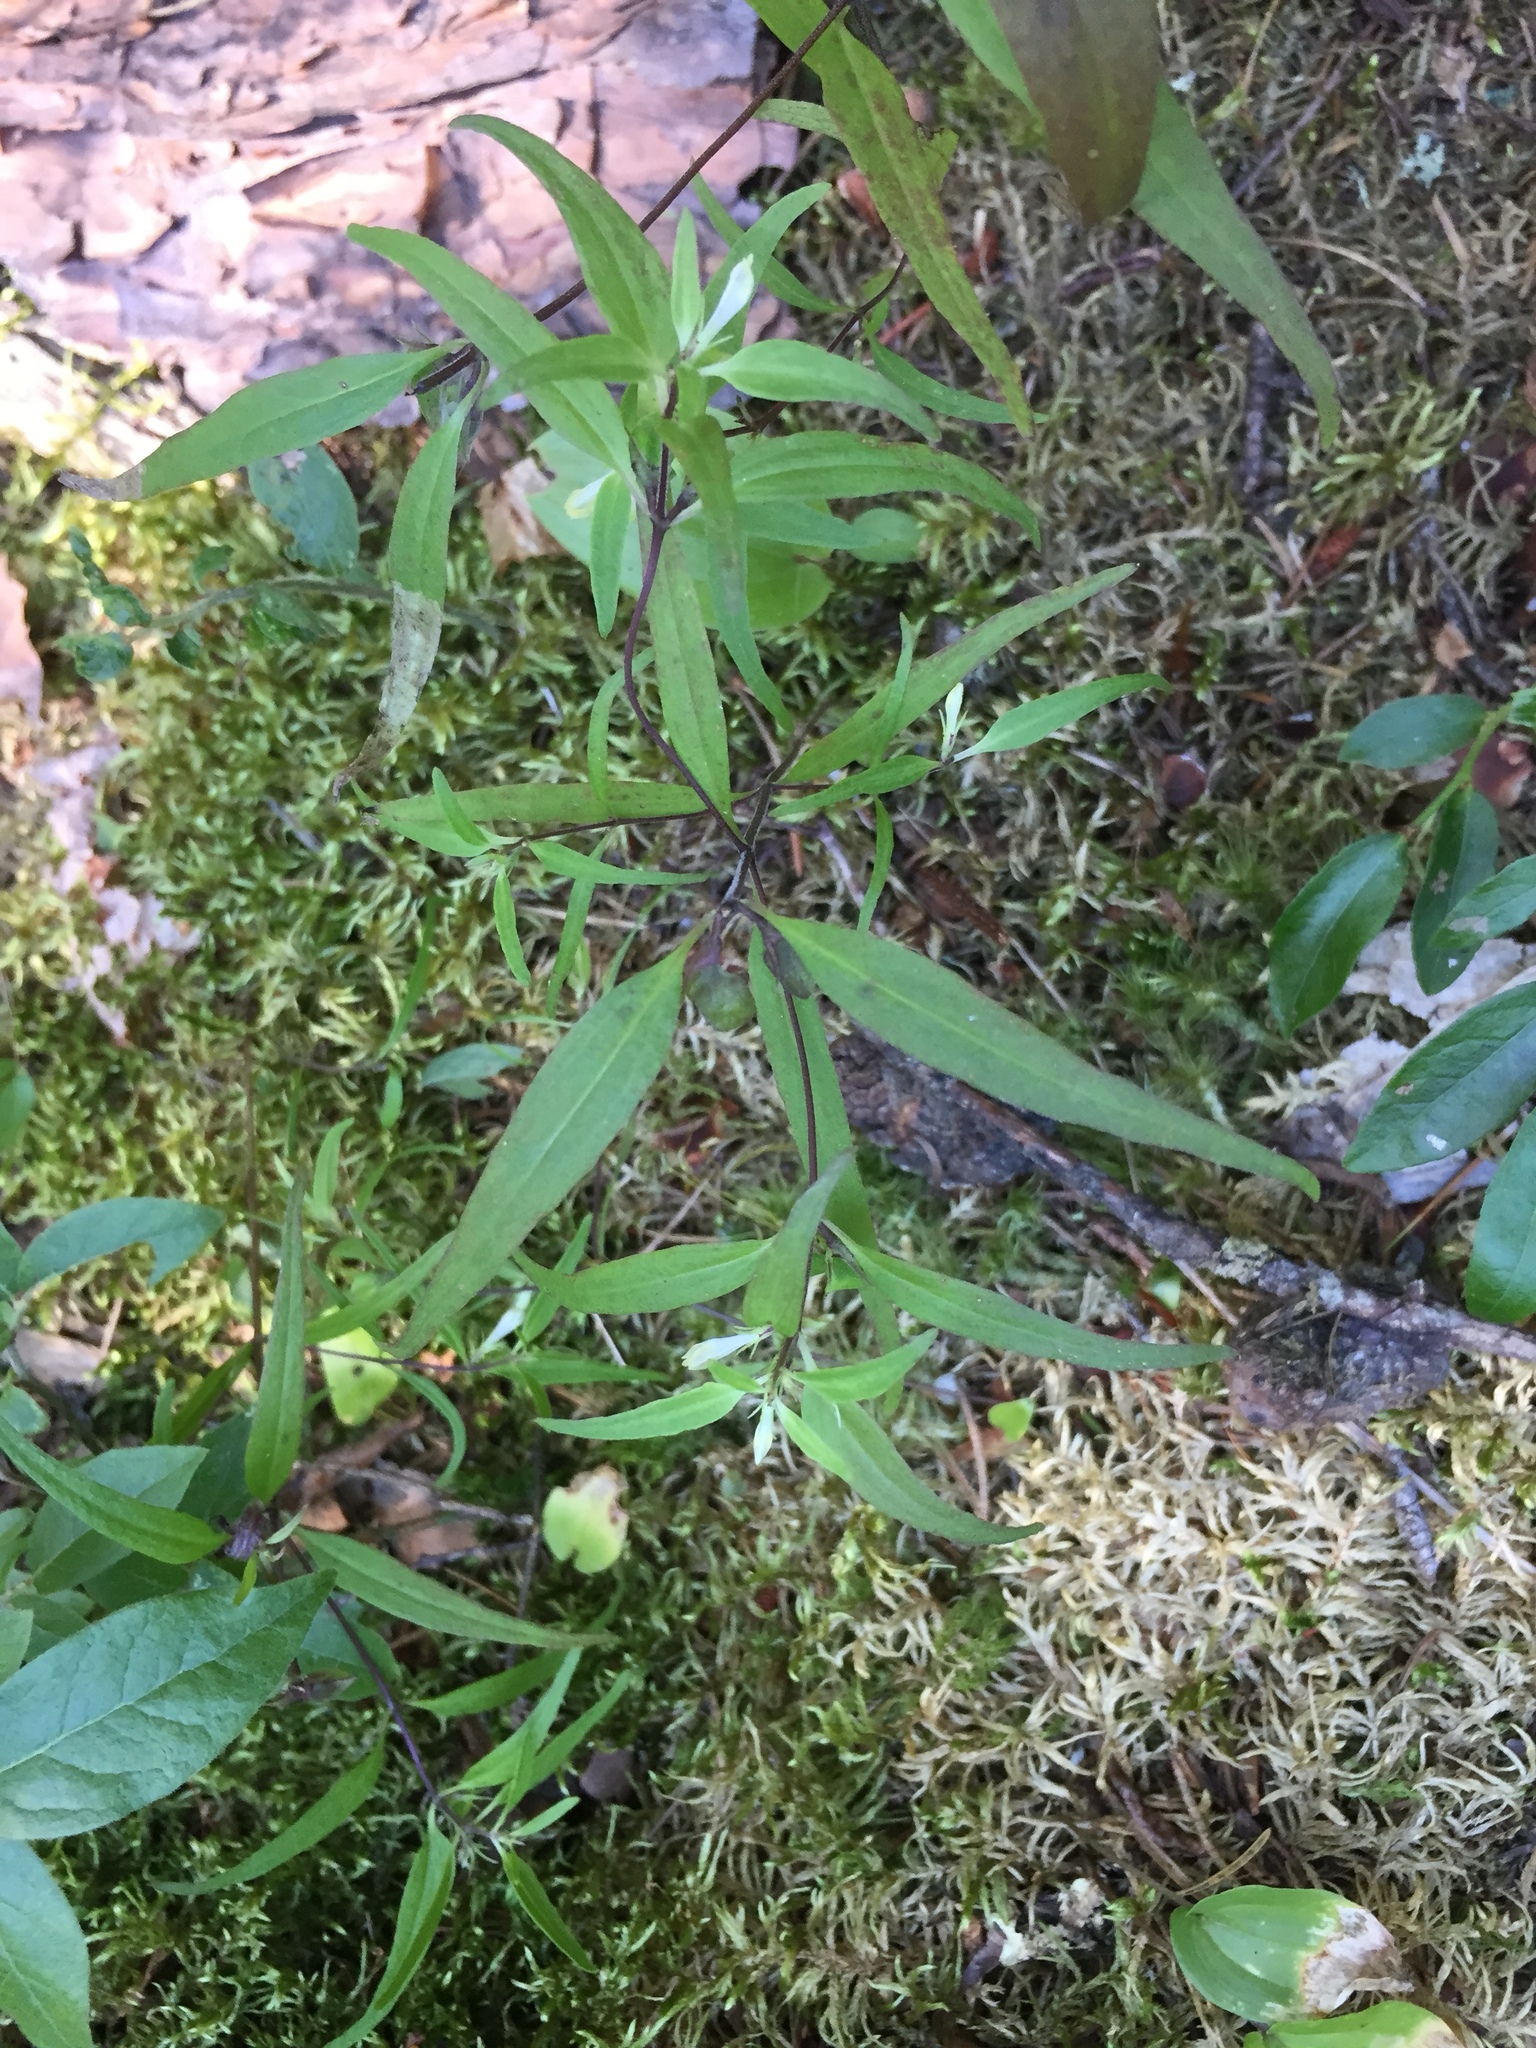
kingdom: Plantae
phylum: Tracheophyta
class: Magnoliopsida
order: Lamiales
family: Orobanchaceae
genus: Melampyrum
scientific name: Melampyrum lineare
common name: American cow-wheat
